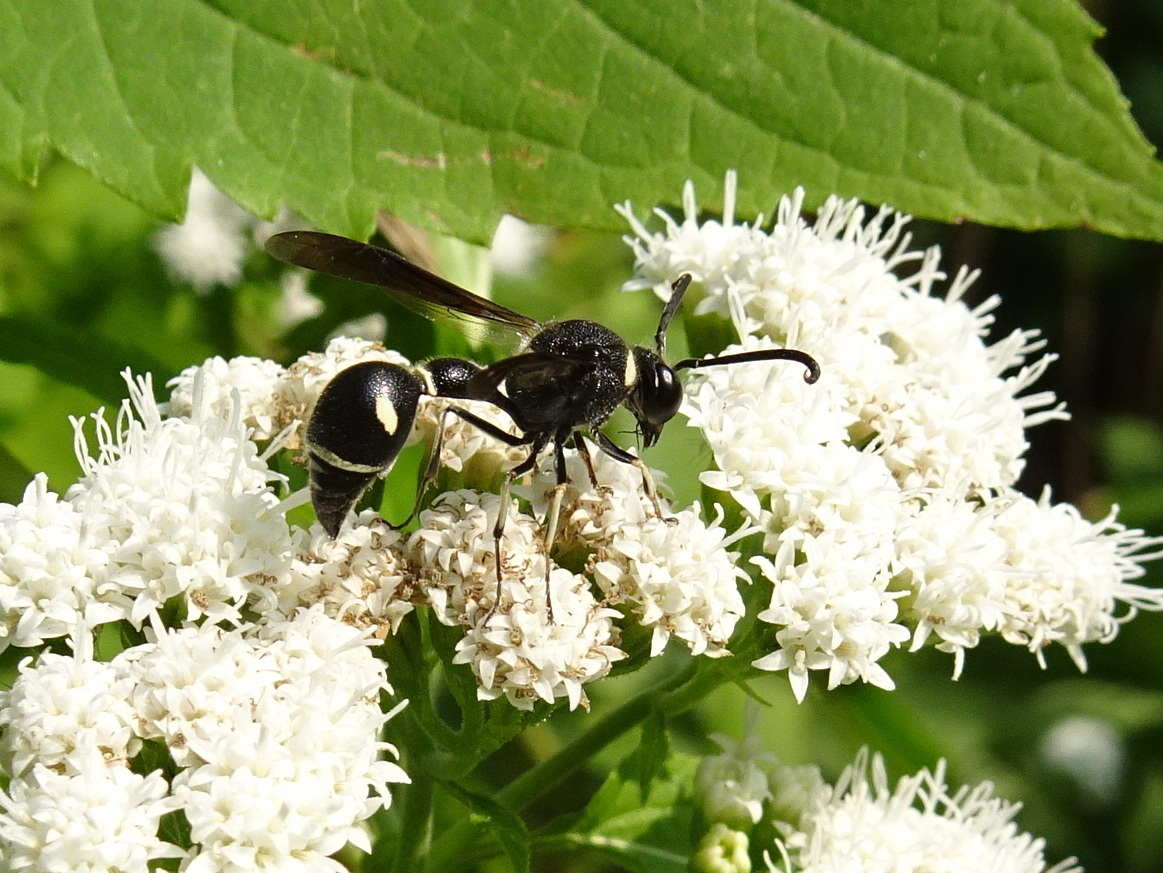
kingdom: Animalia
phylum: Arthropoda
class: Insecta
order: Hymenoptera
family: Vespidae
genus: Eumenes
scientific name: Eumenes fraternus
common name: Fraternal potter wasp
